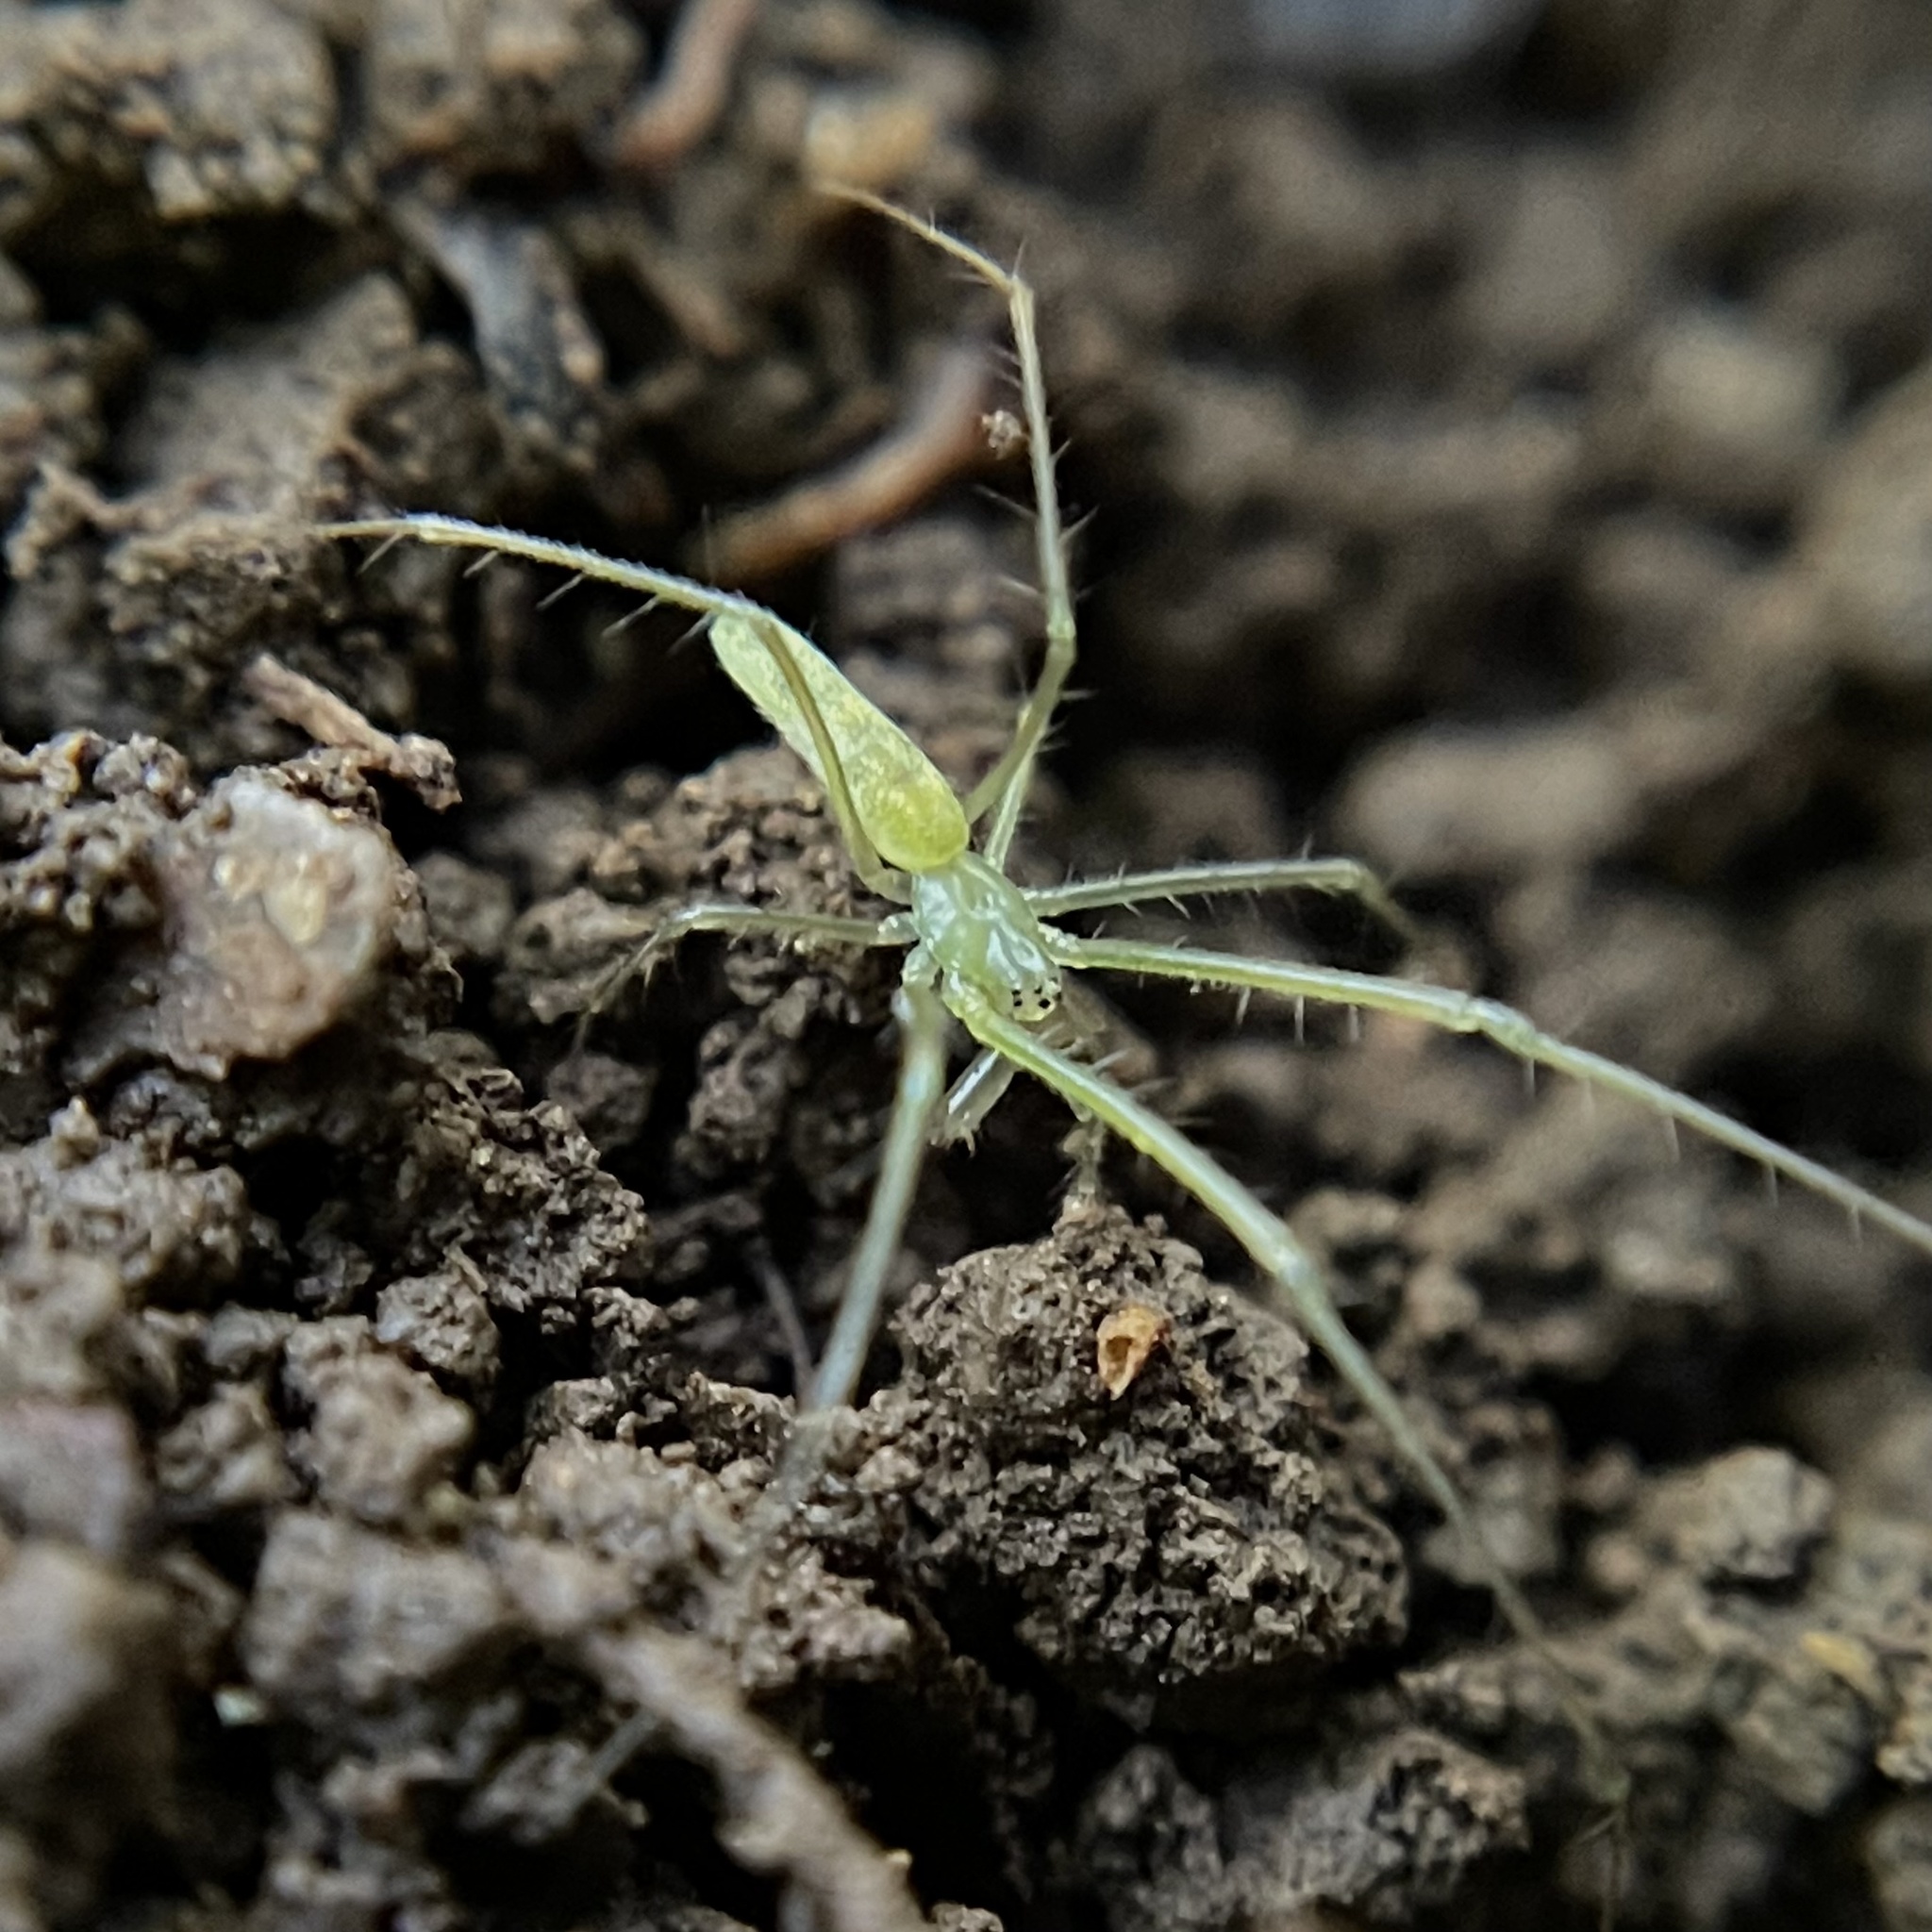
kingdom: Animalia
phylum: Arthropoda
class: Arachnida
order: Araneae
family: Tetragnathidae
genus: Tetragnatha
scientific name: Tetragnatha tantalus
